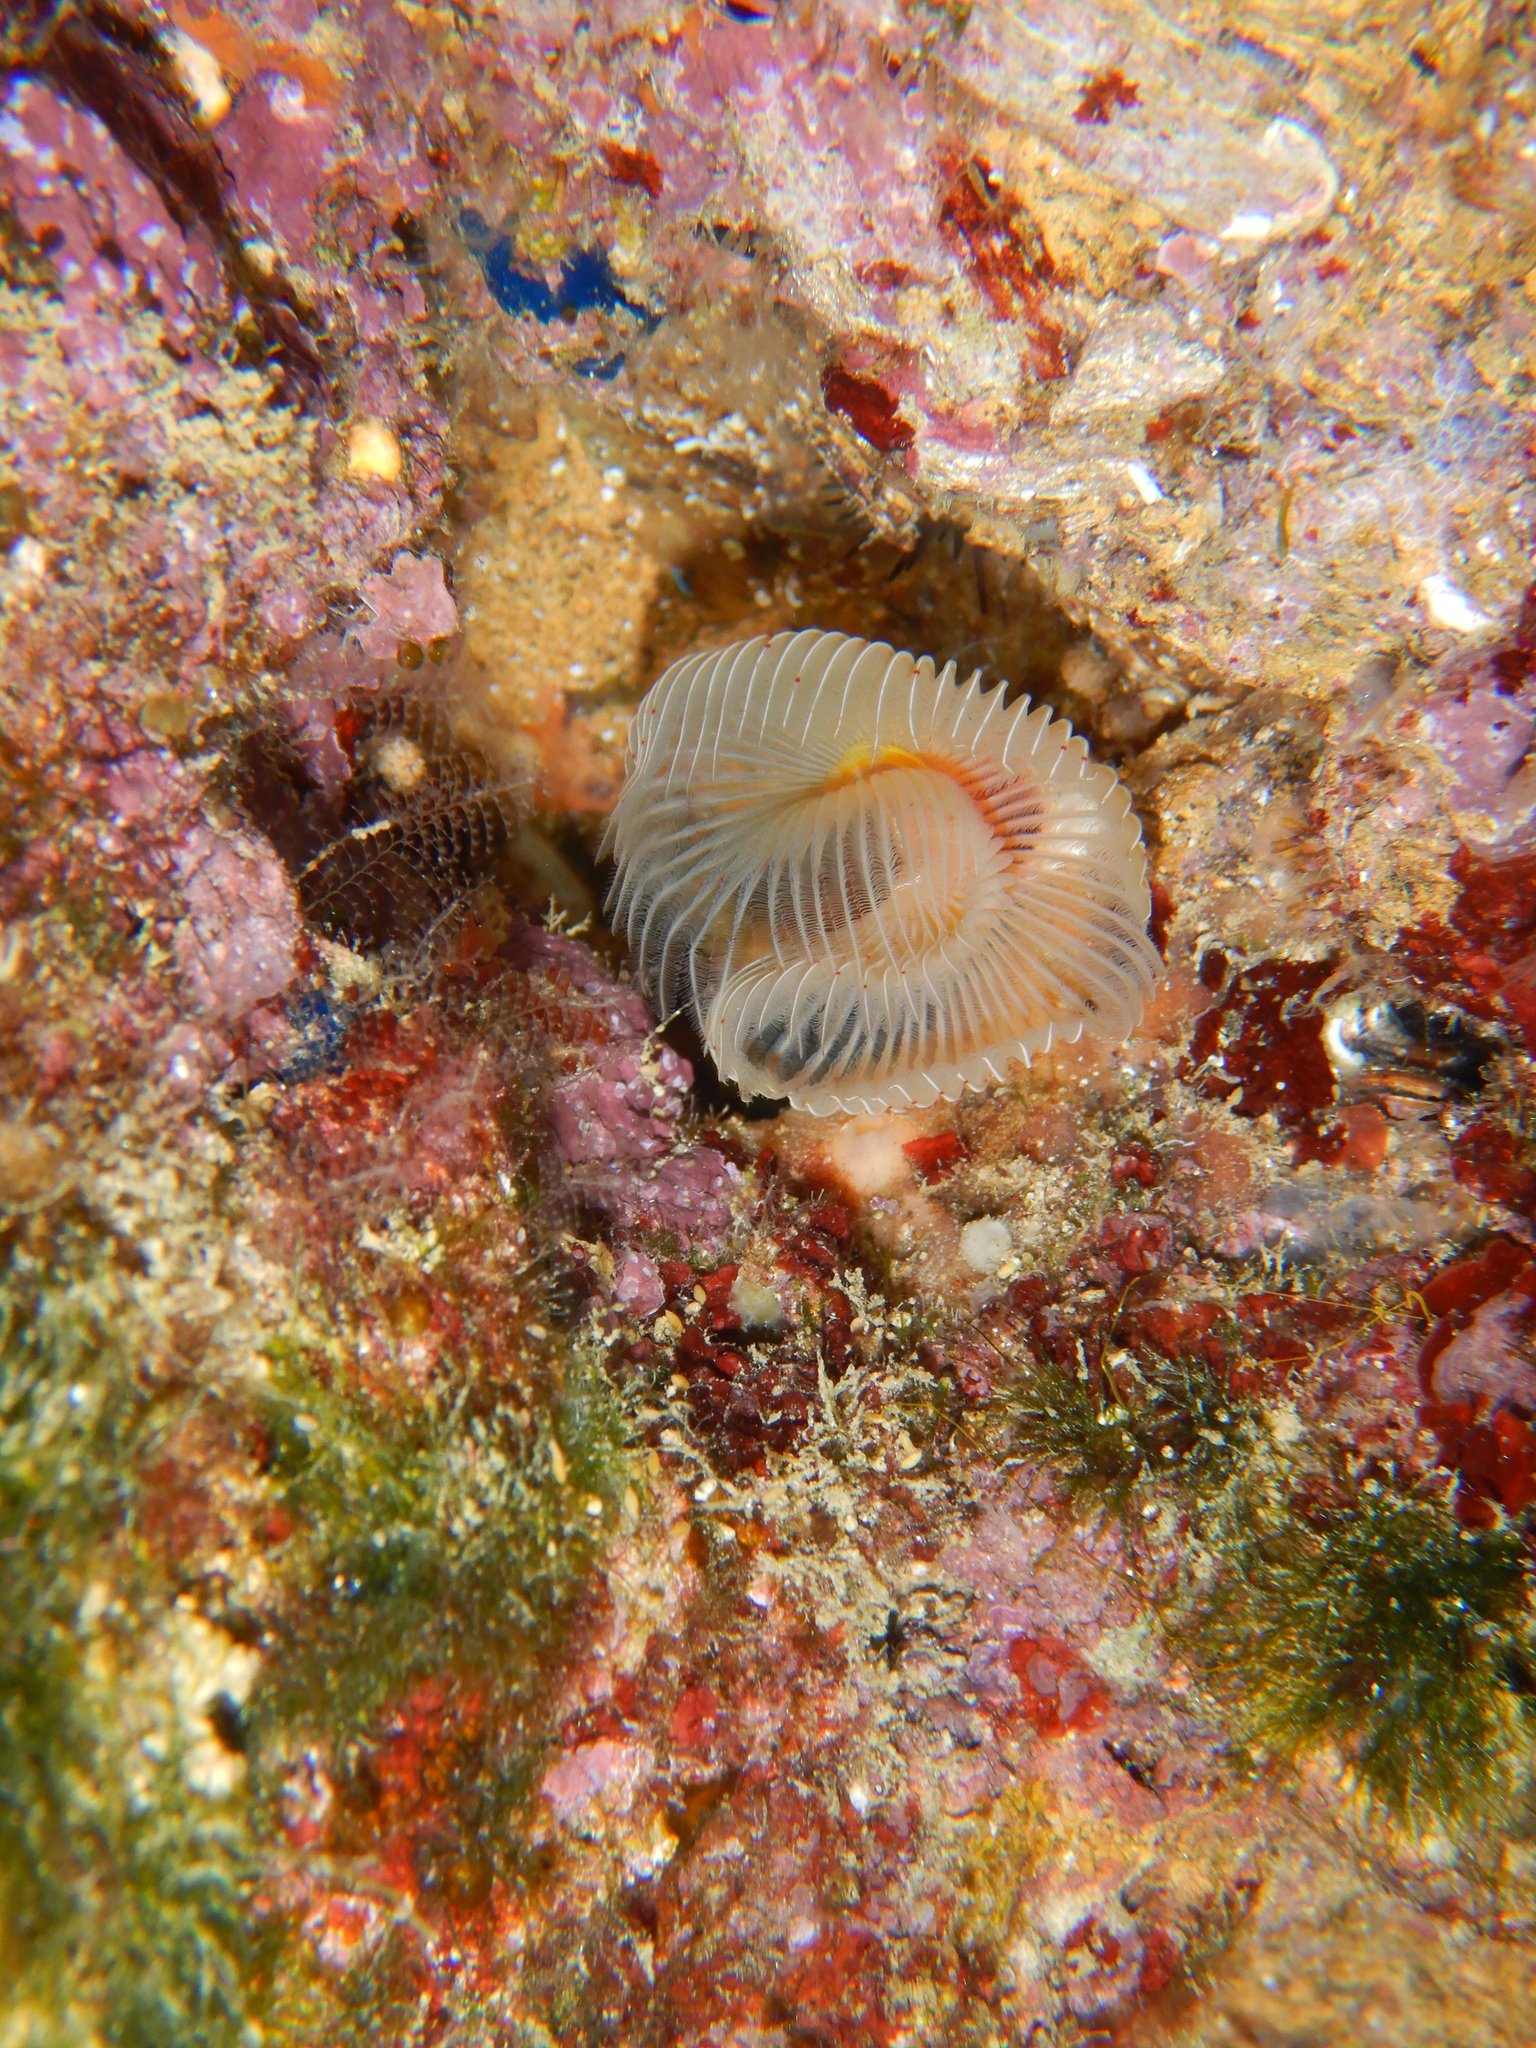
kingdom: Animalia
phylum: Annelida
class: Polychaeta
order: Sabellida
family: Serpulidae
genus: Protula
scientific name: Protula tubularia
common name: Red-spotted horseshoe
